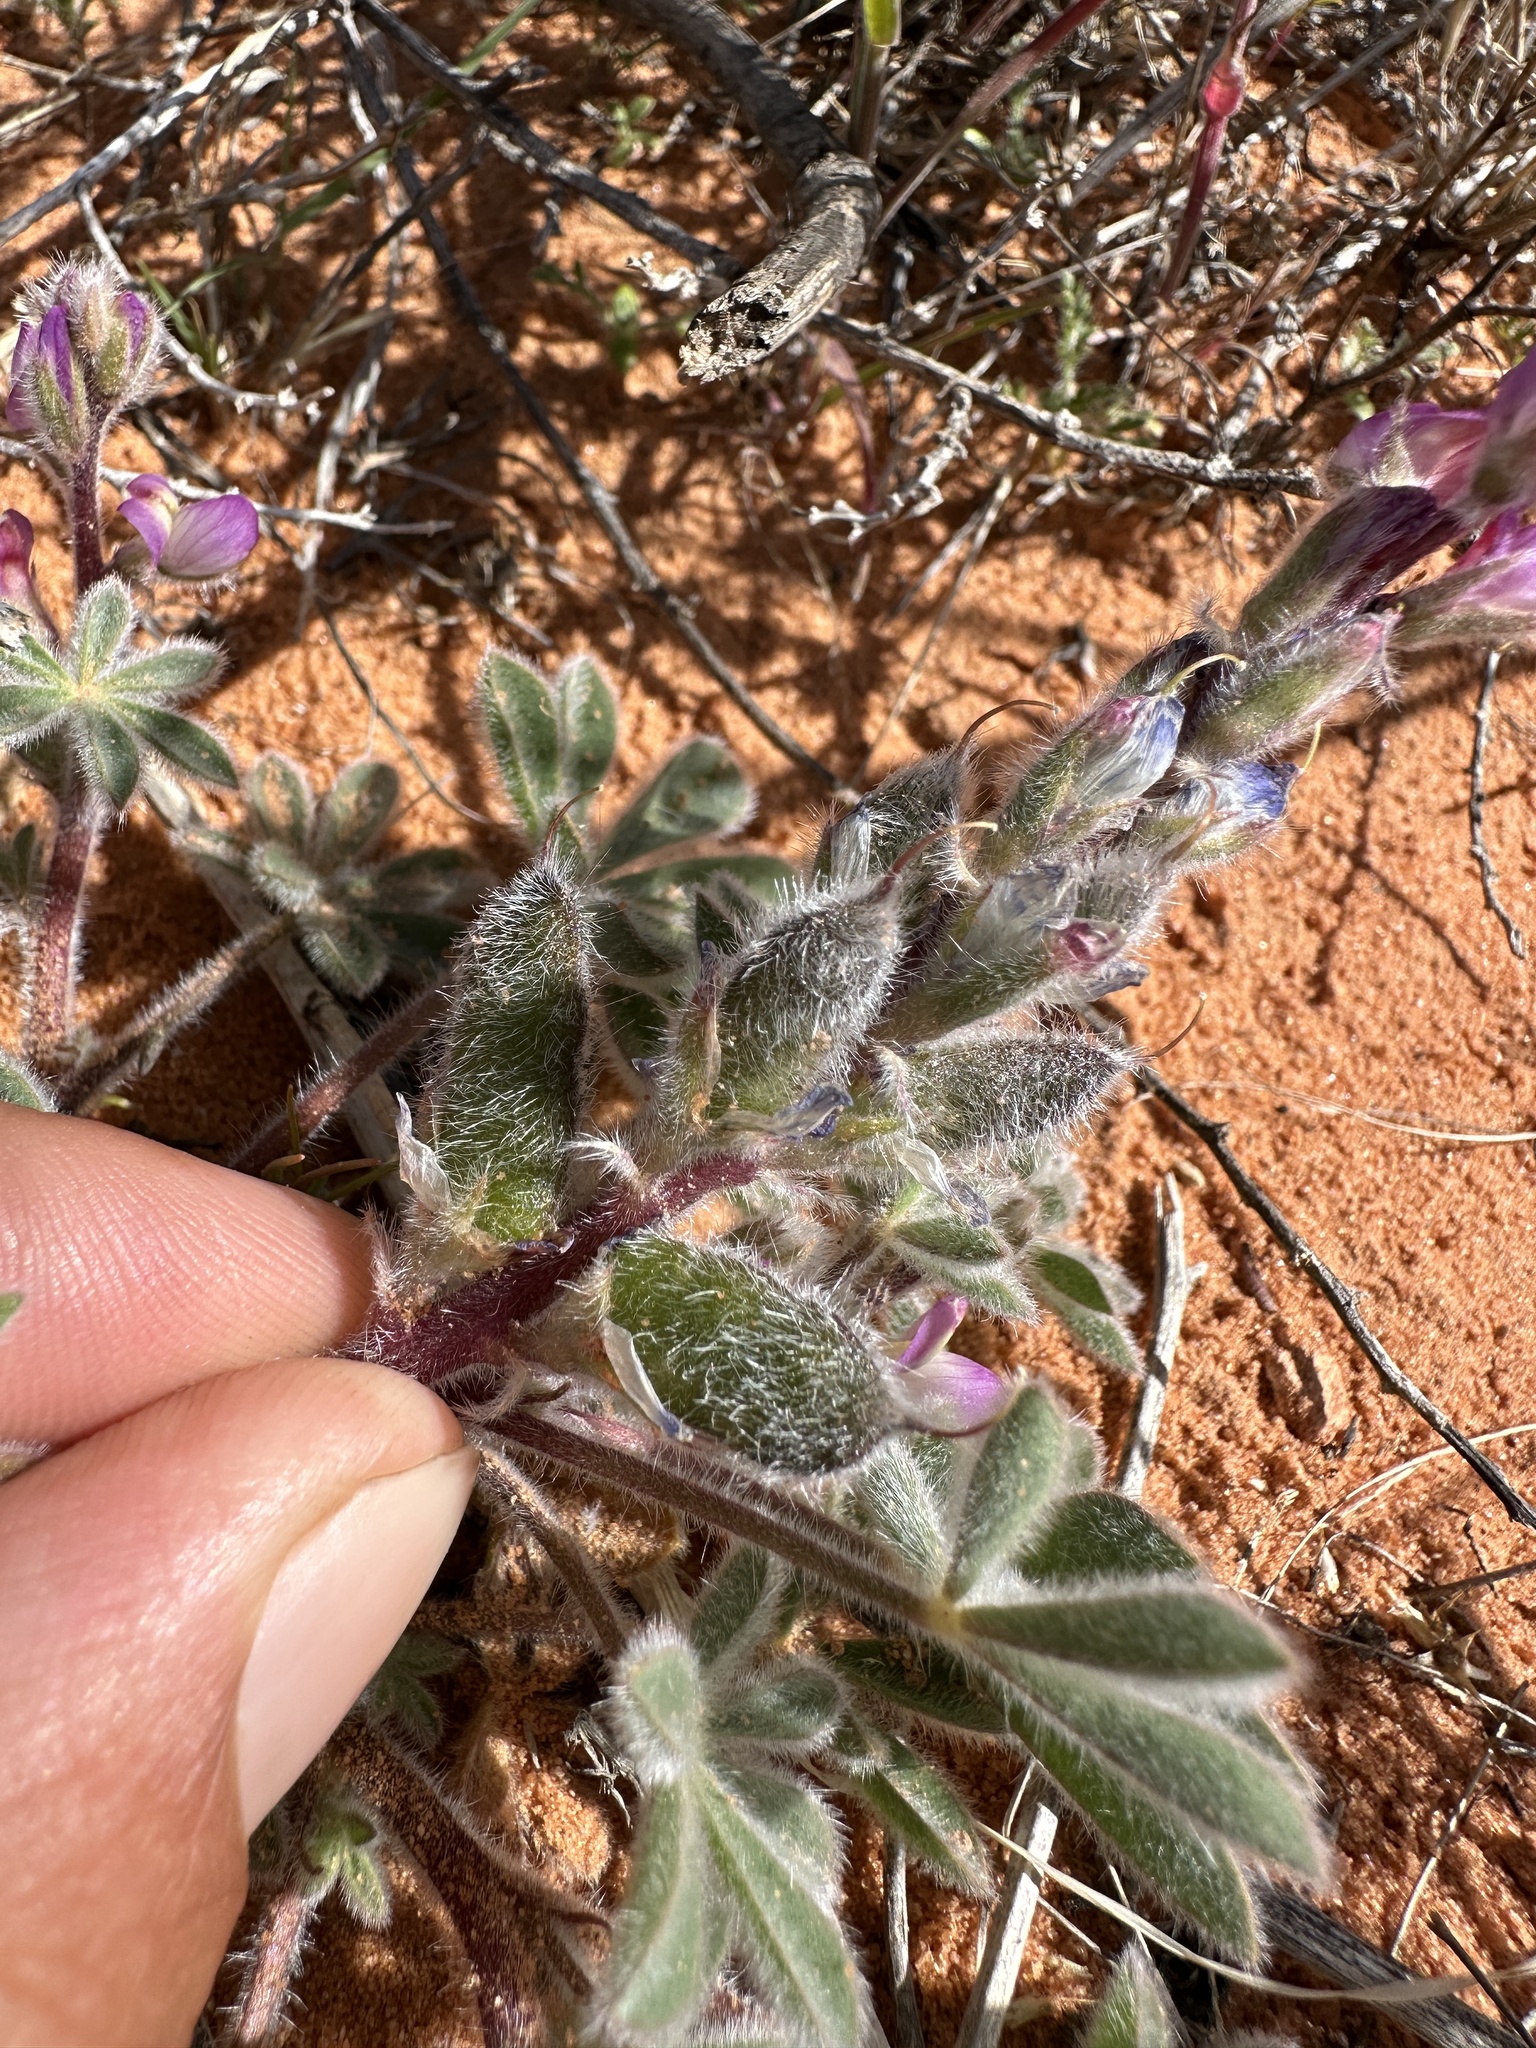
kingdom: Plantae
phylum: Tracheophyta
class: Magnoliopsida
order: Fabales
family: Fabaceae
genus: Lupinus
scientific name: Lupinus concinnus
